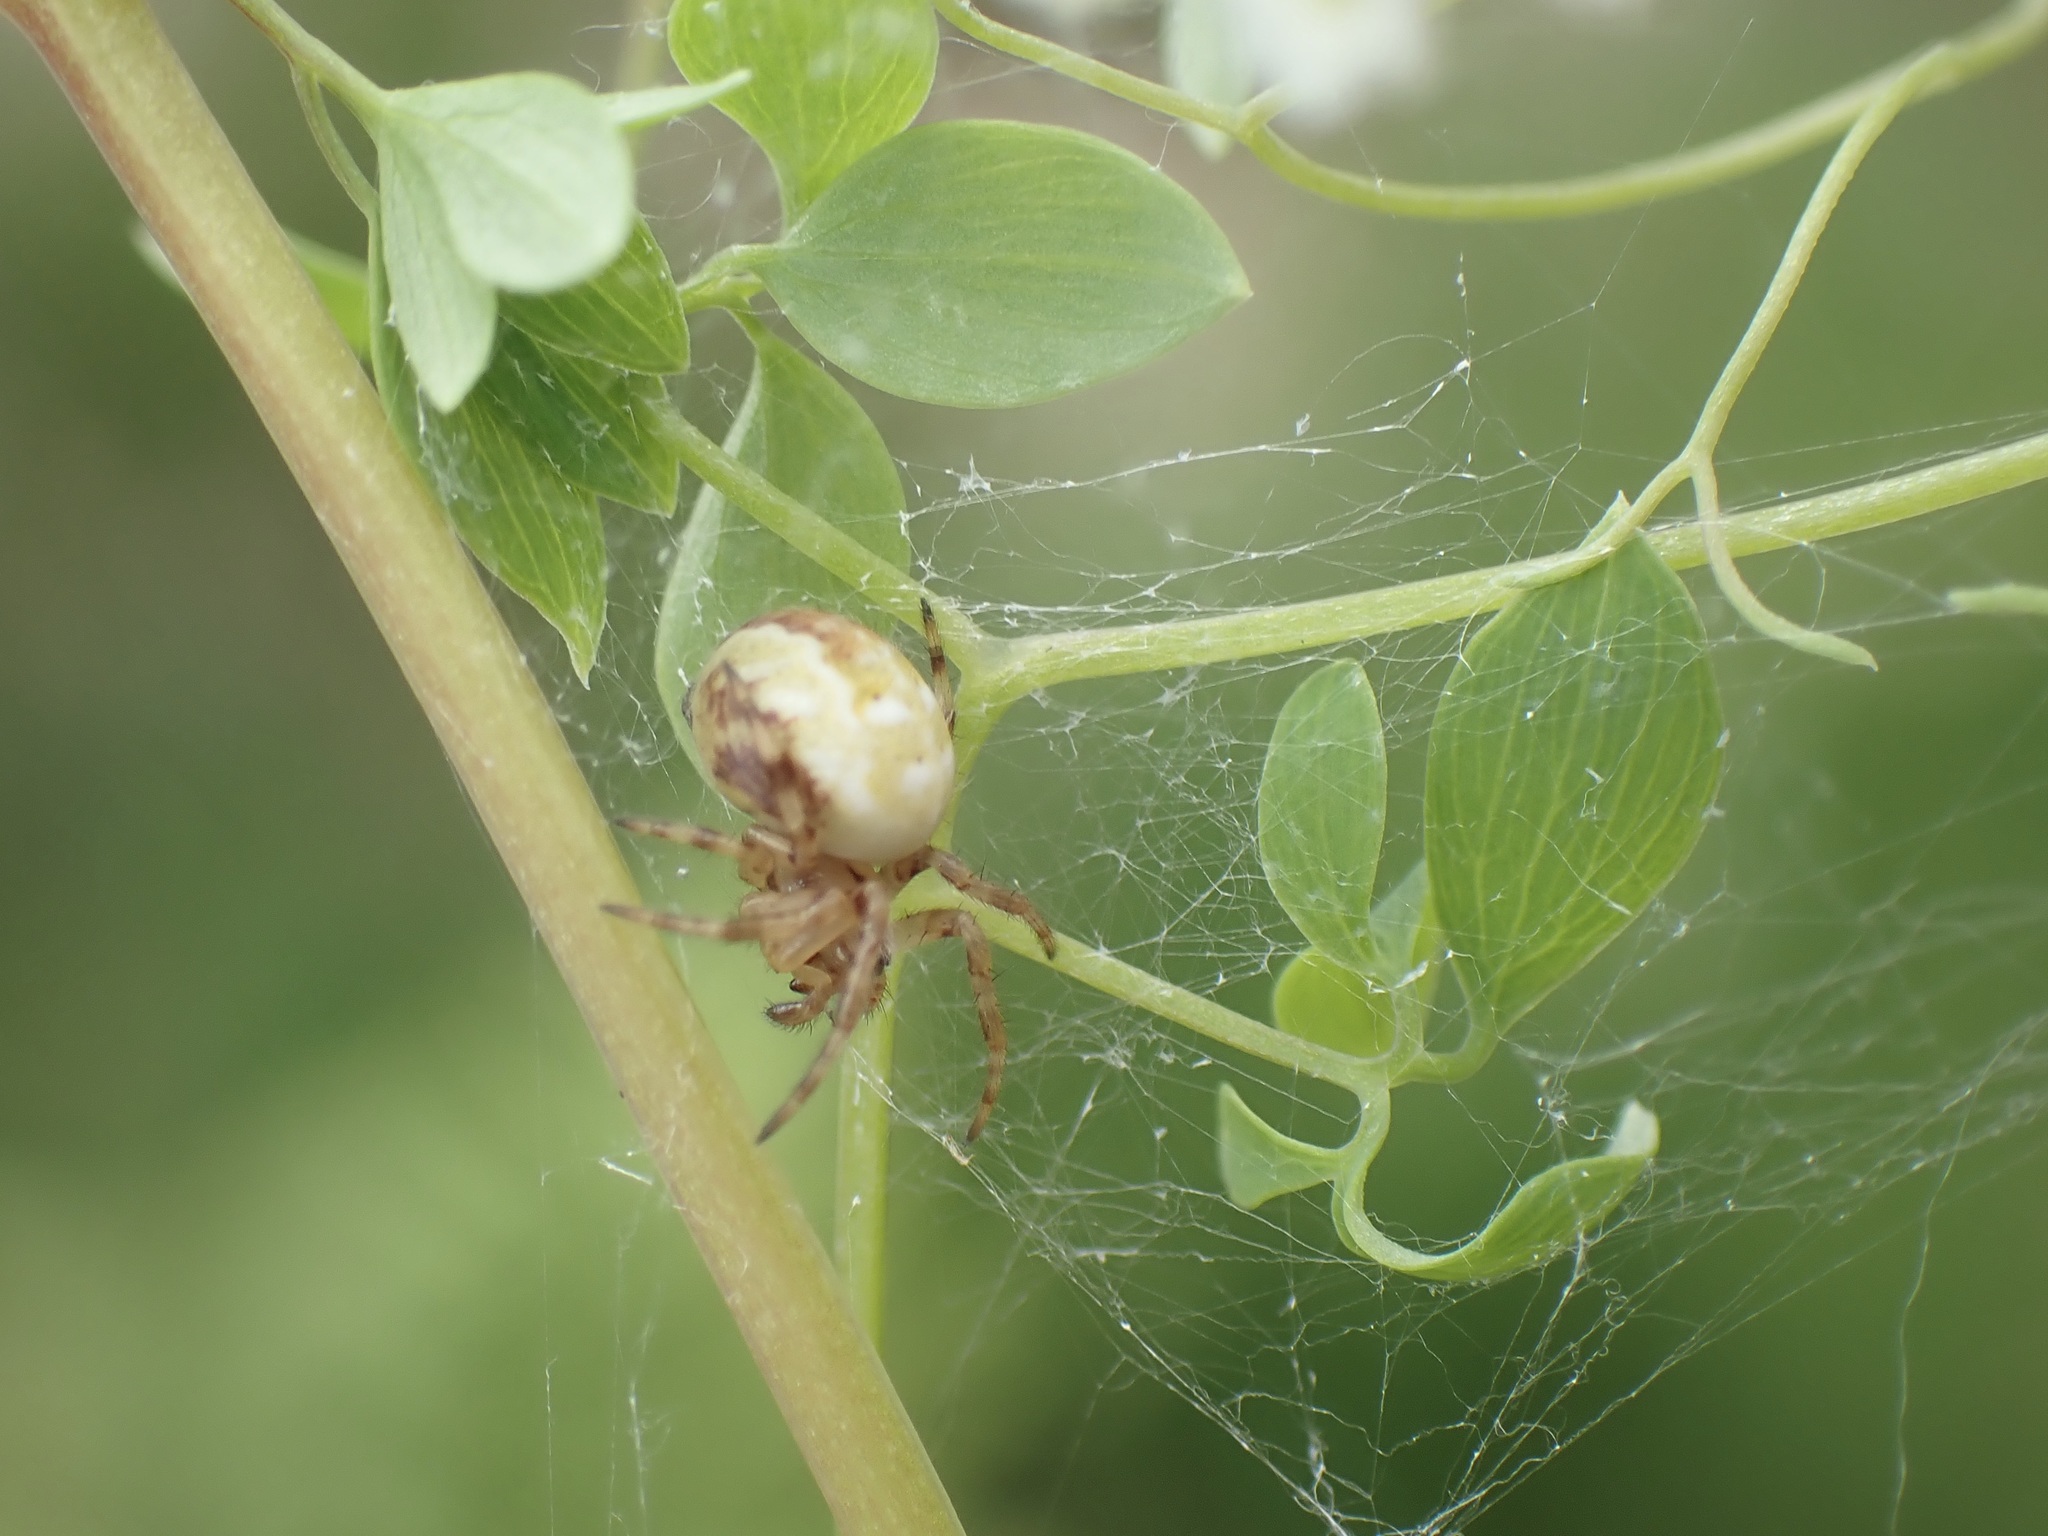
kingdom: Animalia
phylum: Arthropoda
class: Arachnida
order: Araneae
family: Araneidae
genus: Araneus
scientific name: Araneus quadratus
